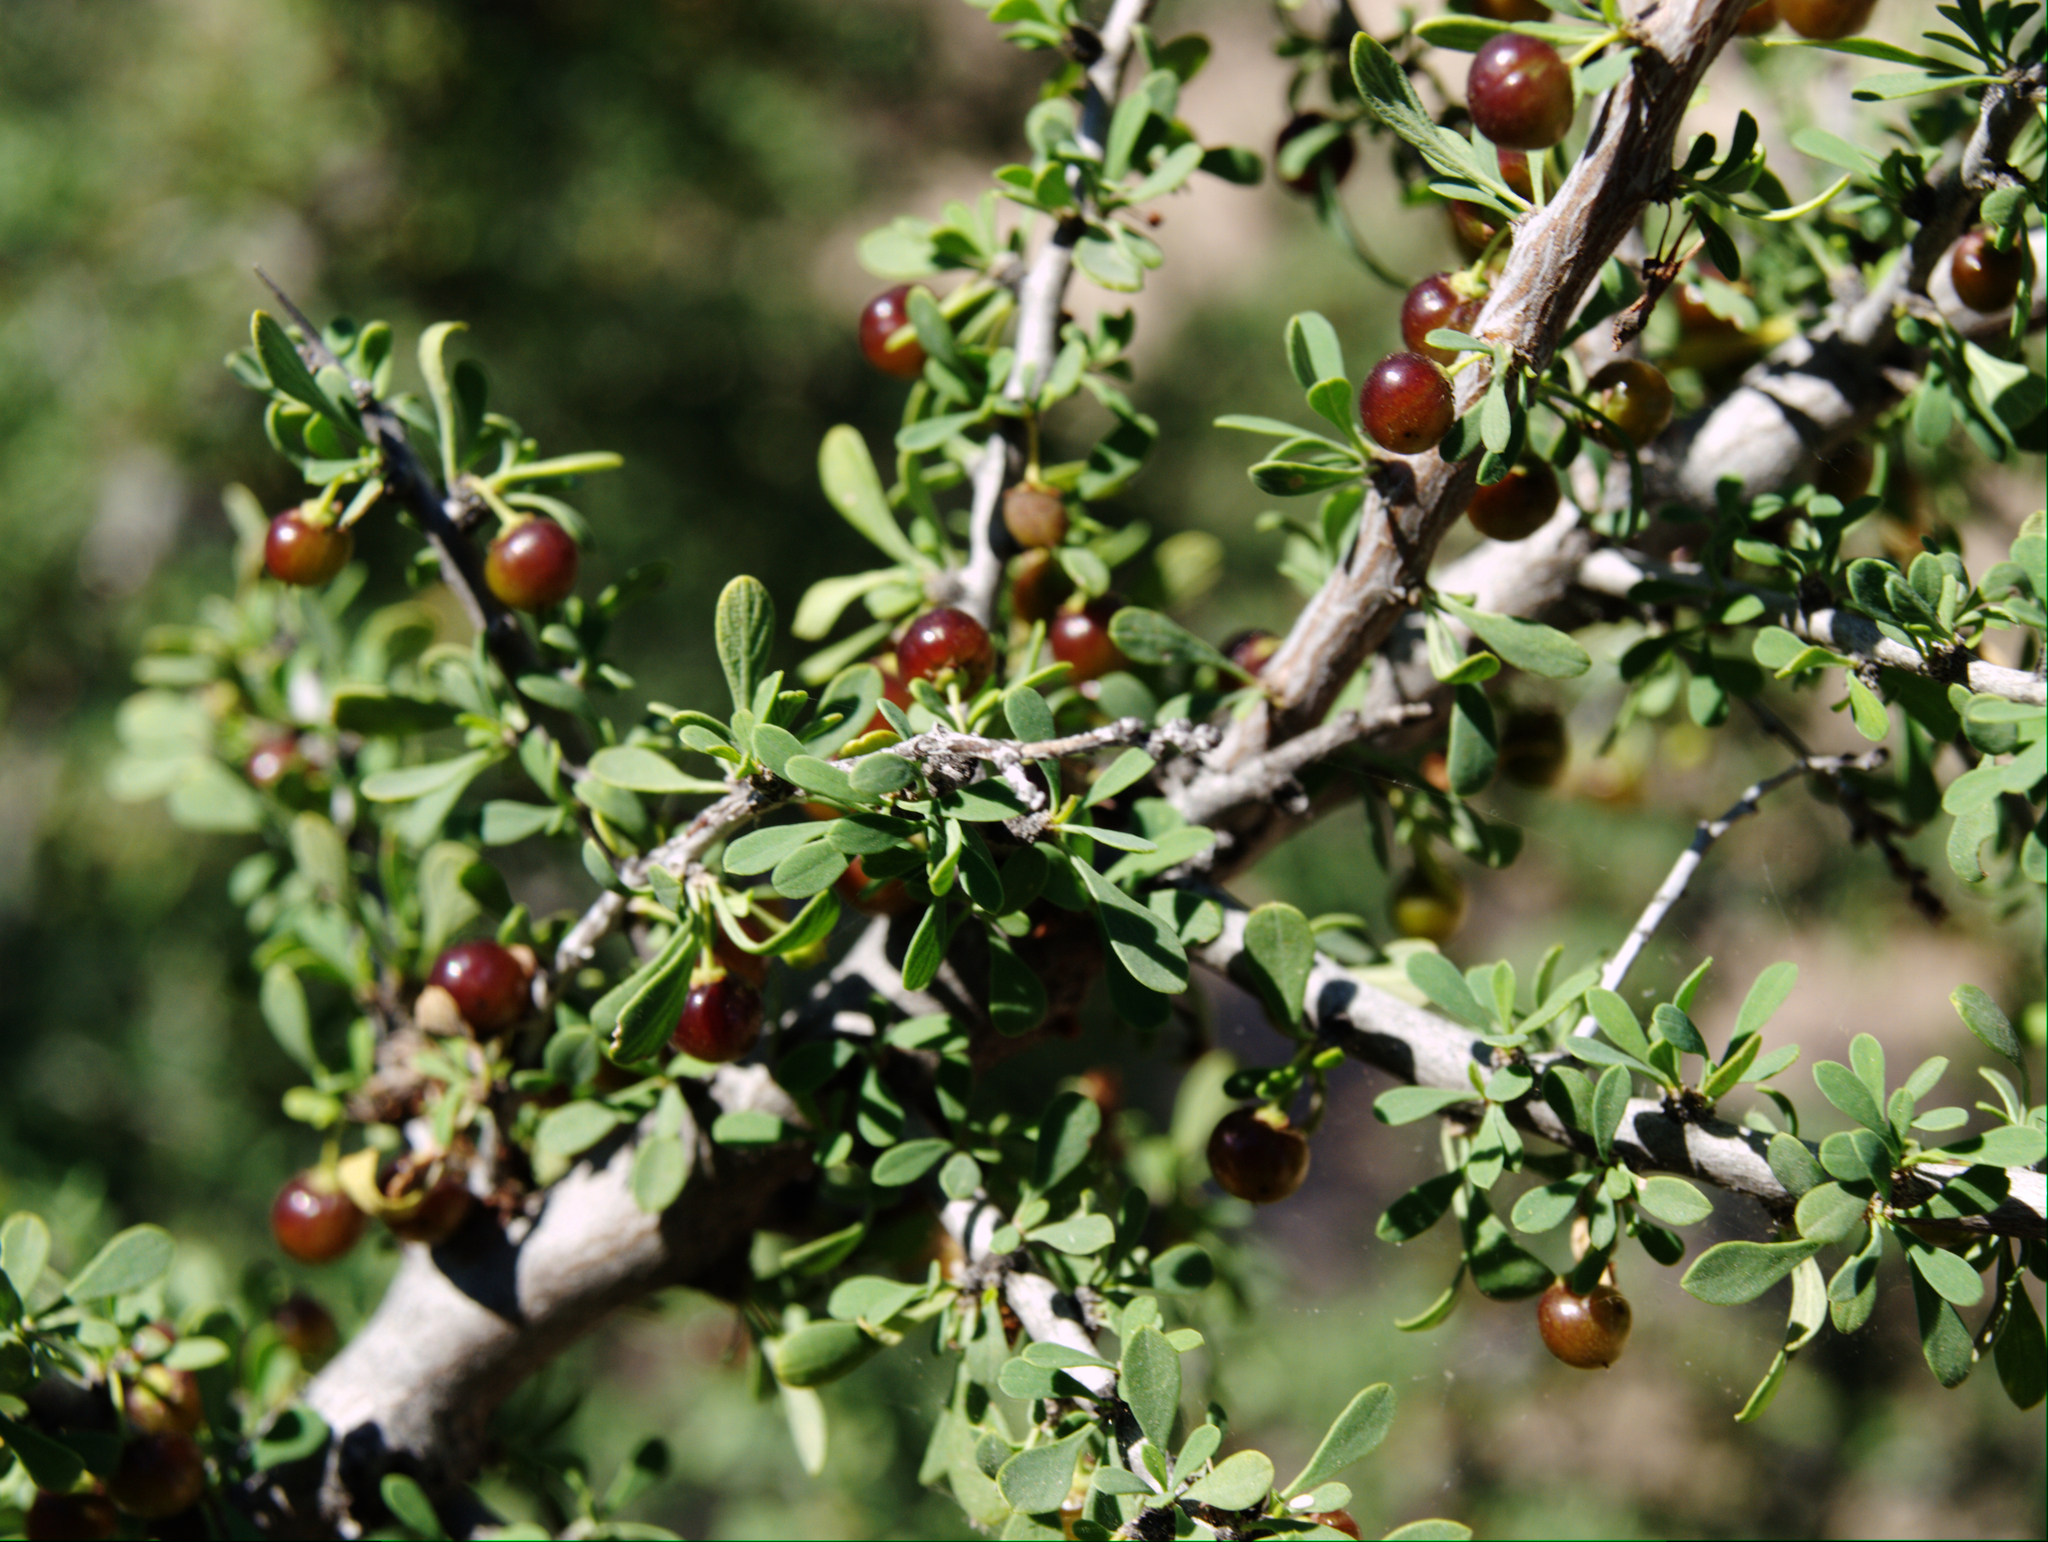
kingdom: Plantae
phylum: Tracheophyta
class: Magnoliopsida
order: Rosales
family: Rhamnaceae
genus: Condalia
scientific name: Condalia globosa
